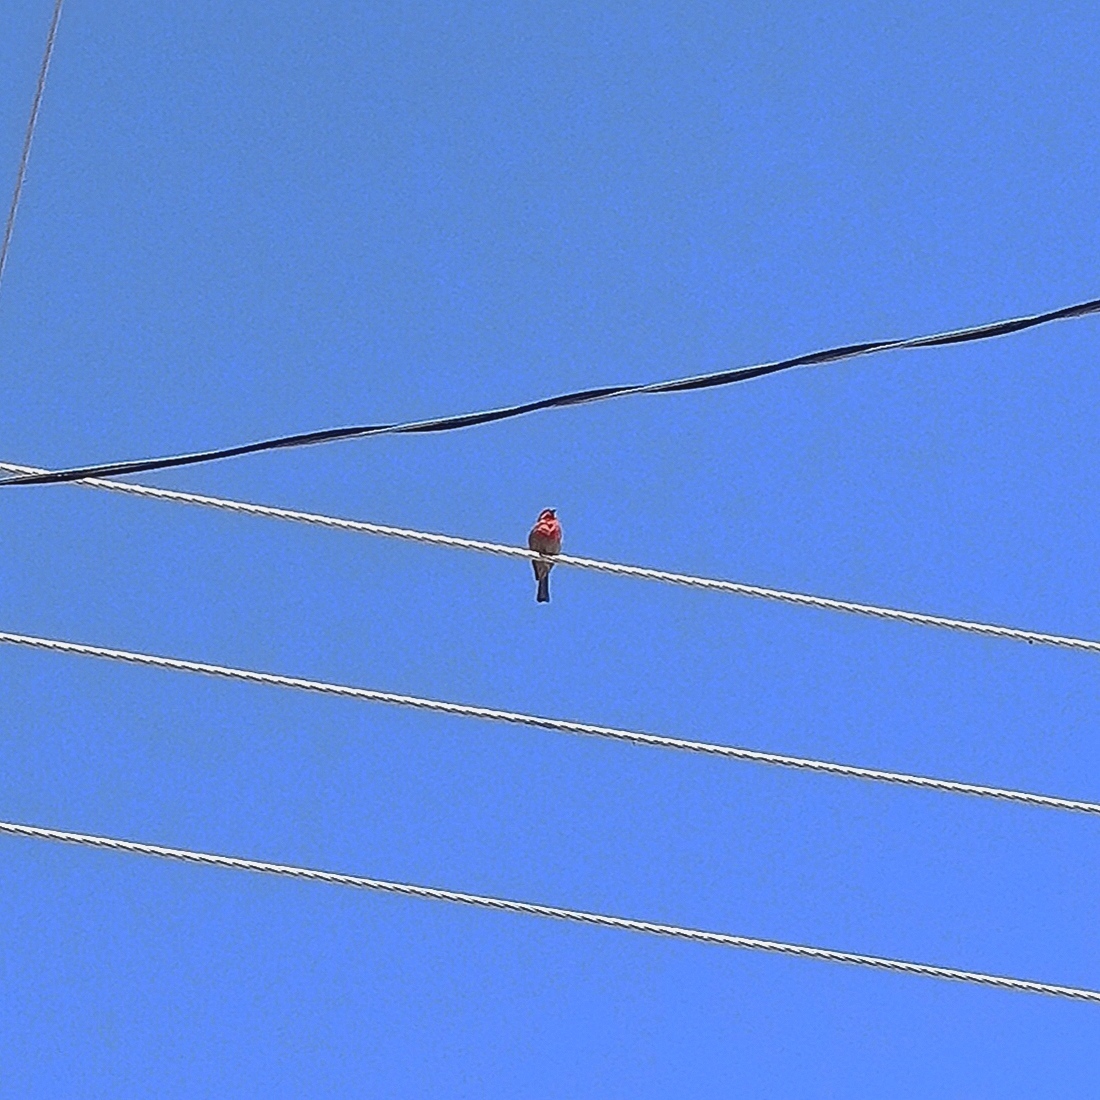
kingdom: Animalia
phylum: Chordata
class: Aves
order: Passeriformes
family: Fringillidae
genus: Haemorhous
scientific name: Haemorhous mexicanus
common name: House finch
